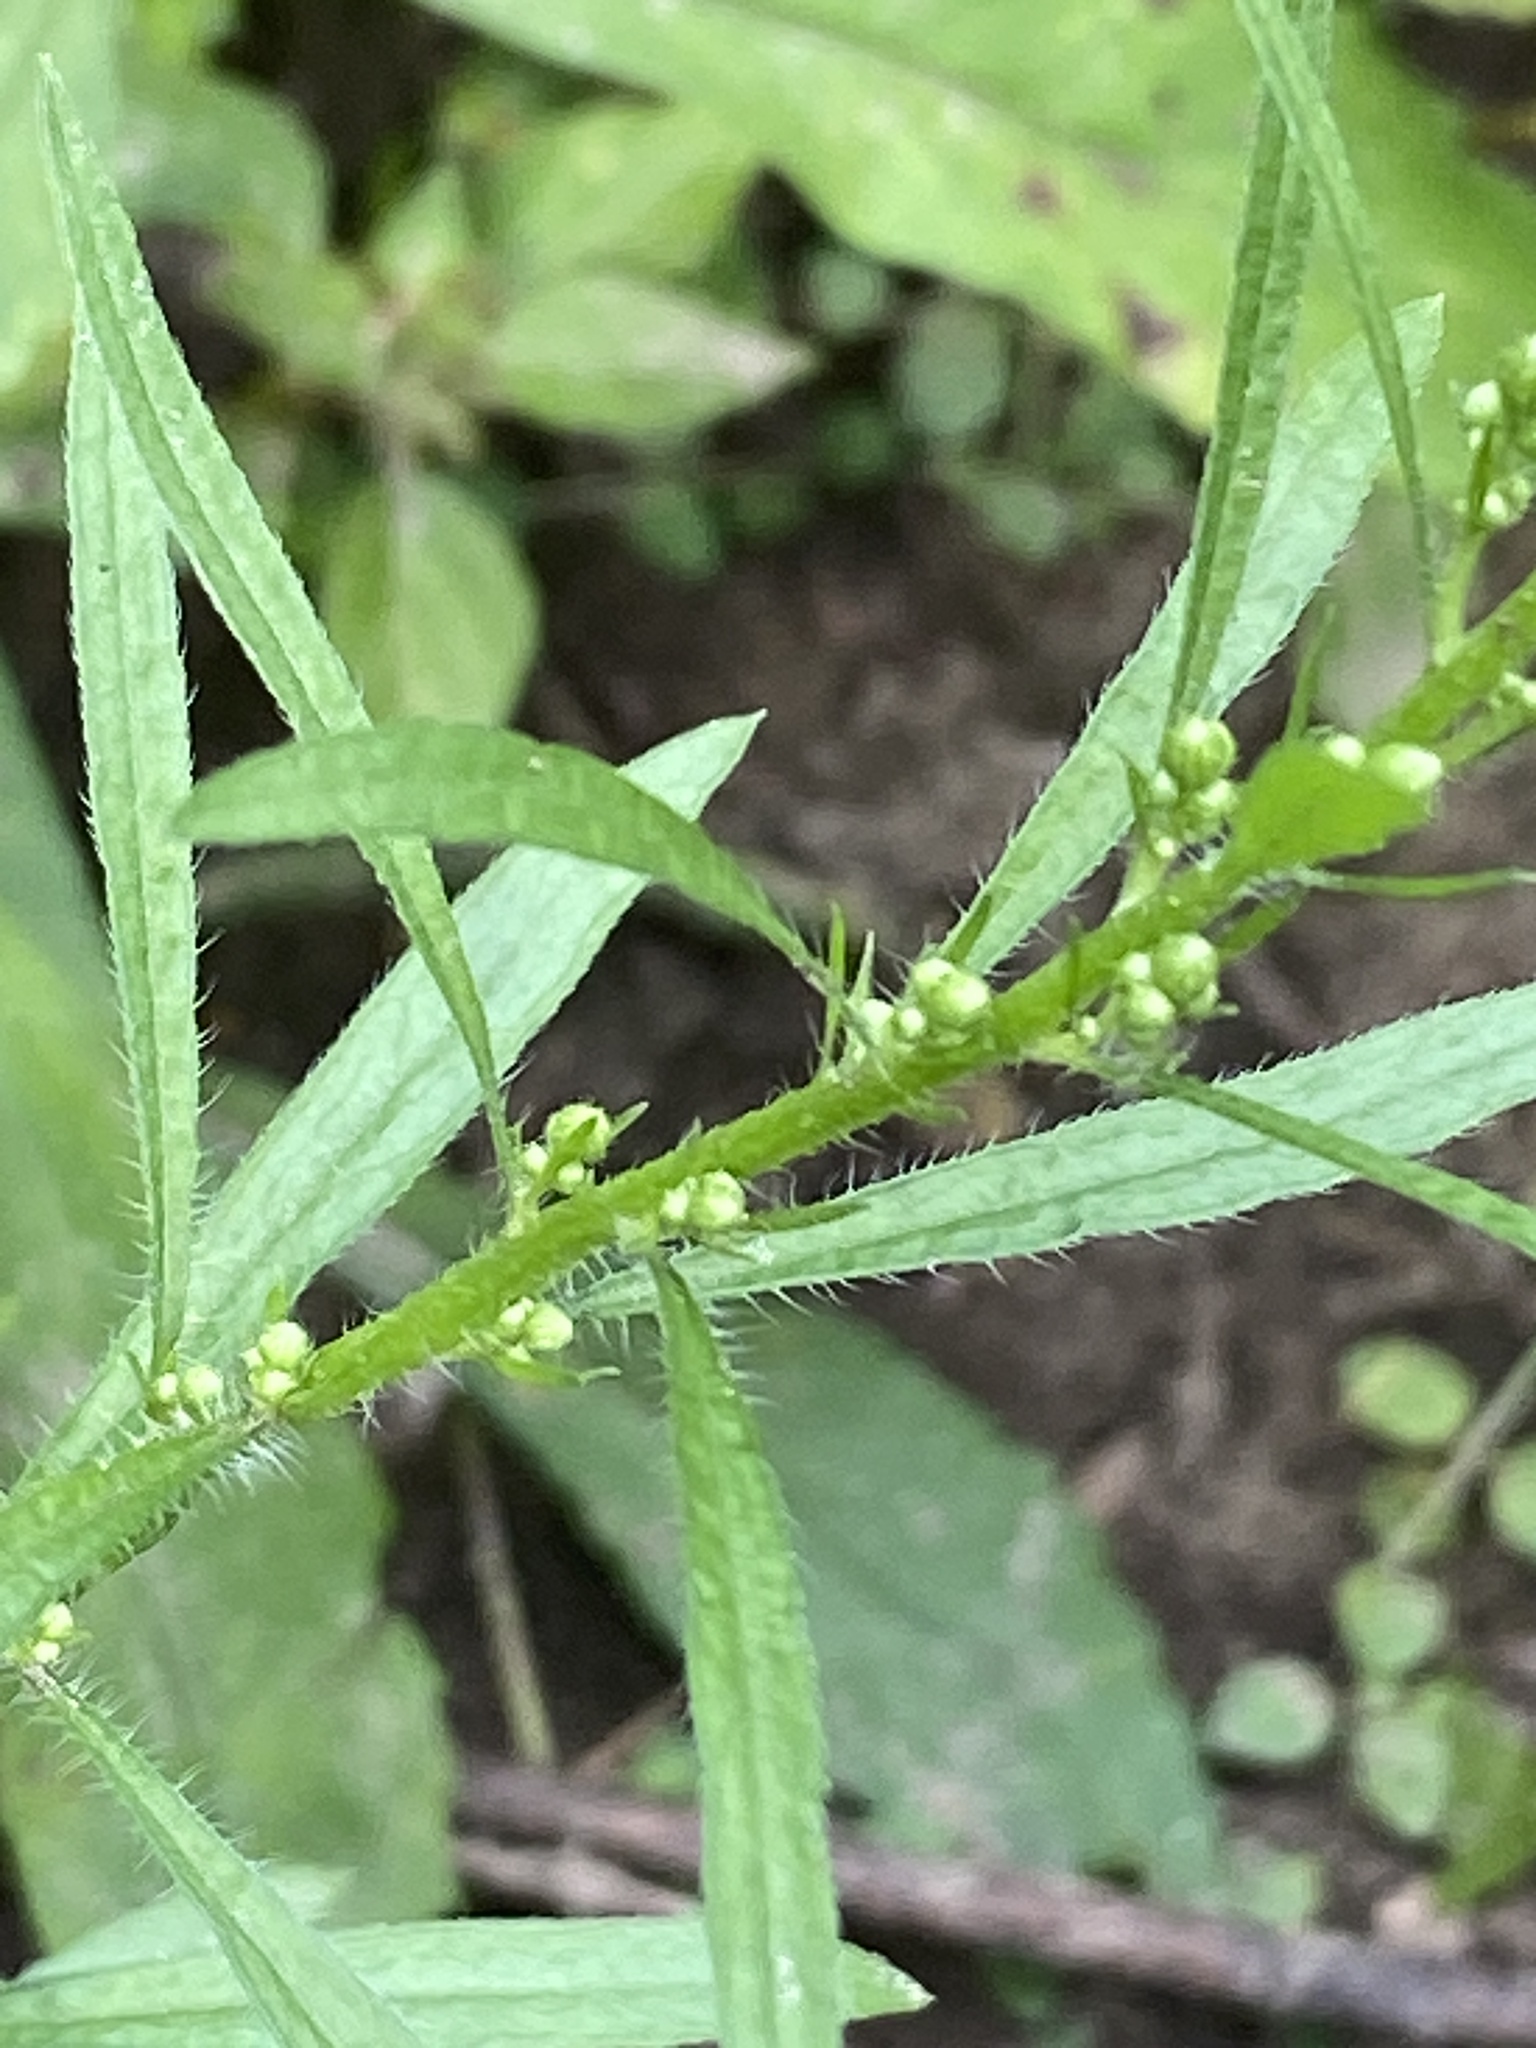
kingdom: Plantae
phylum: Tracheophyta
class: Magnoliopsida
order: Asterales
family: Asteraceae
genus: Erigeron
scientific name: Erigeron canadensis
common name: Canadian fleabane
